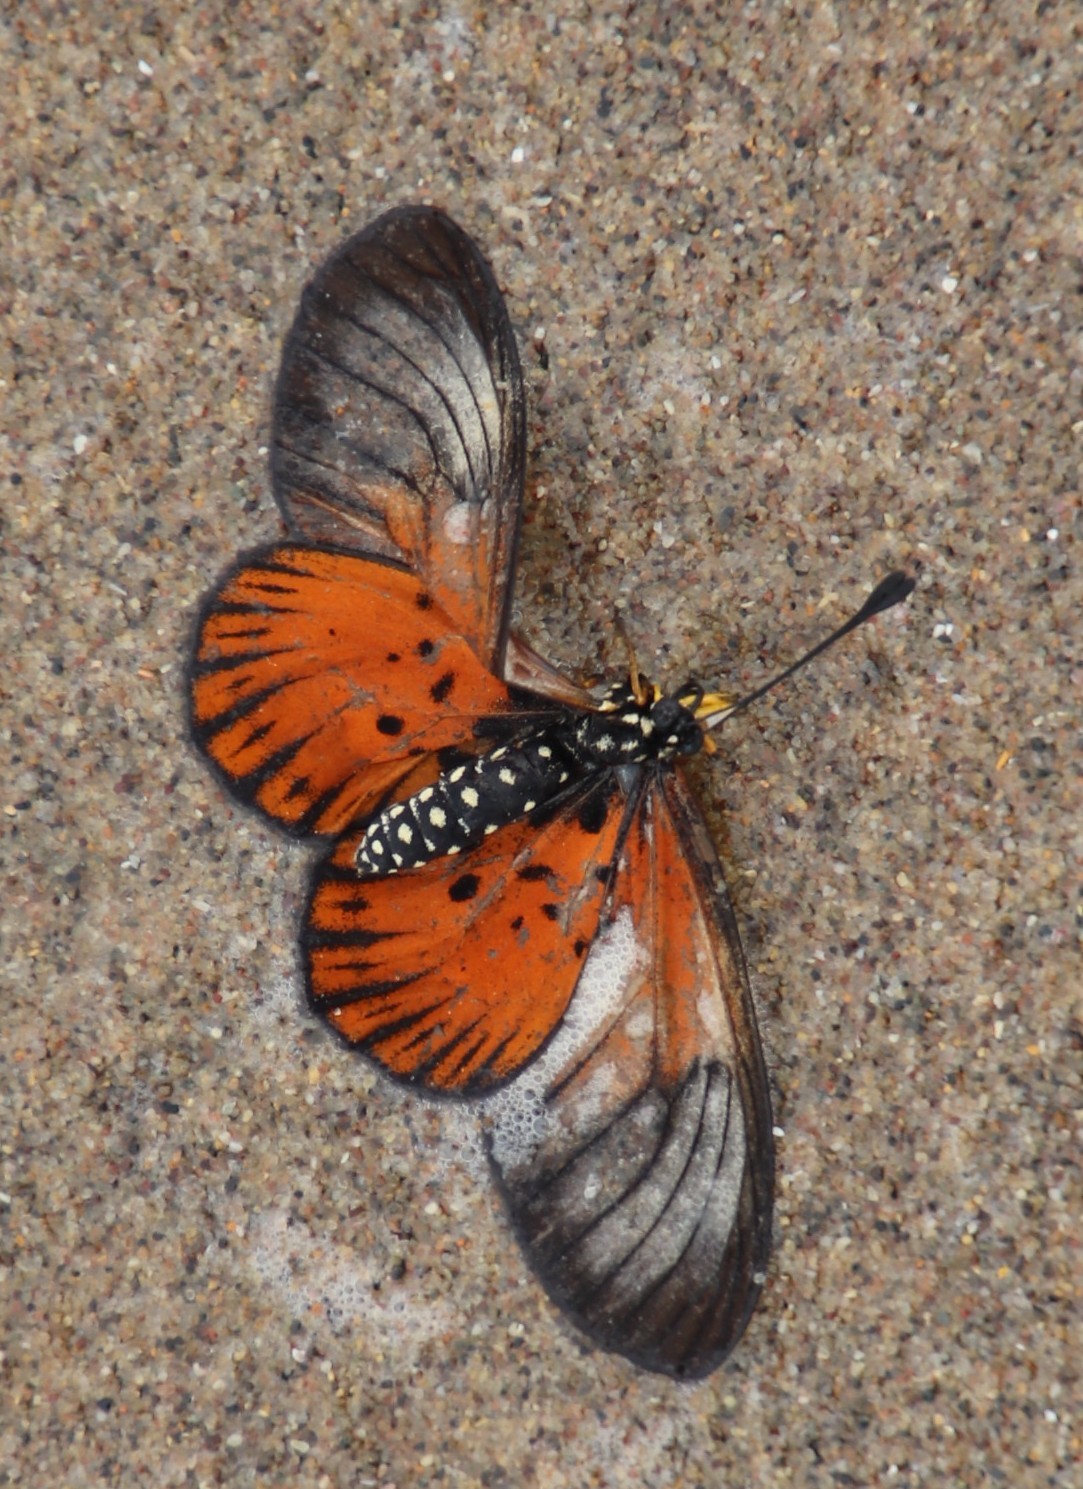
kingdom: Animalia
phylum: Arthropoda
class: Insecta
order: Lepidoptera
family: Nymphalidae
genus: Acraea
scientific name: Acraea igola
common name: Dusky-veined acraea
